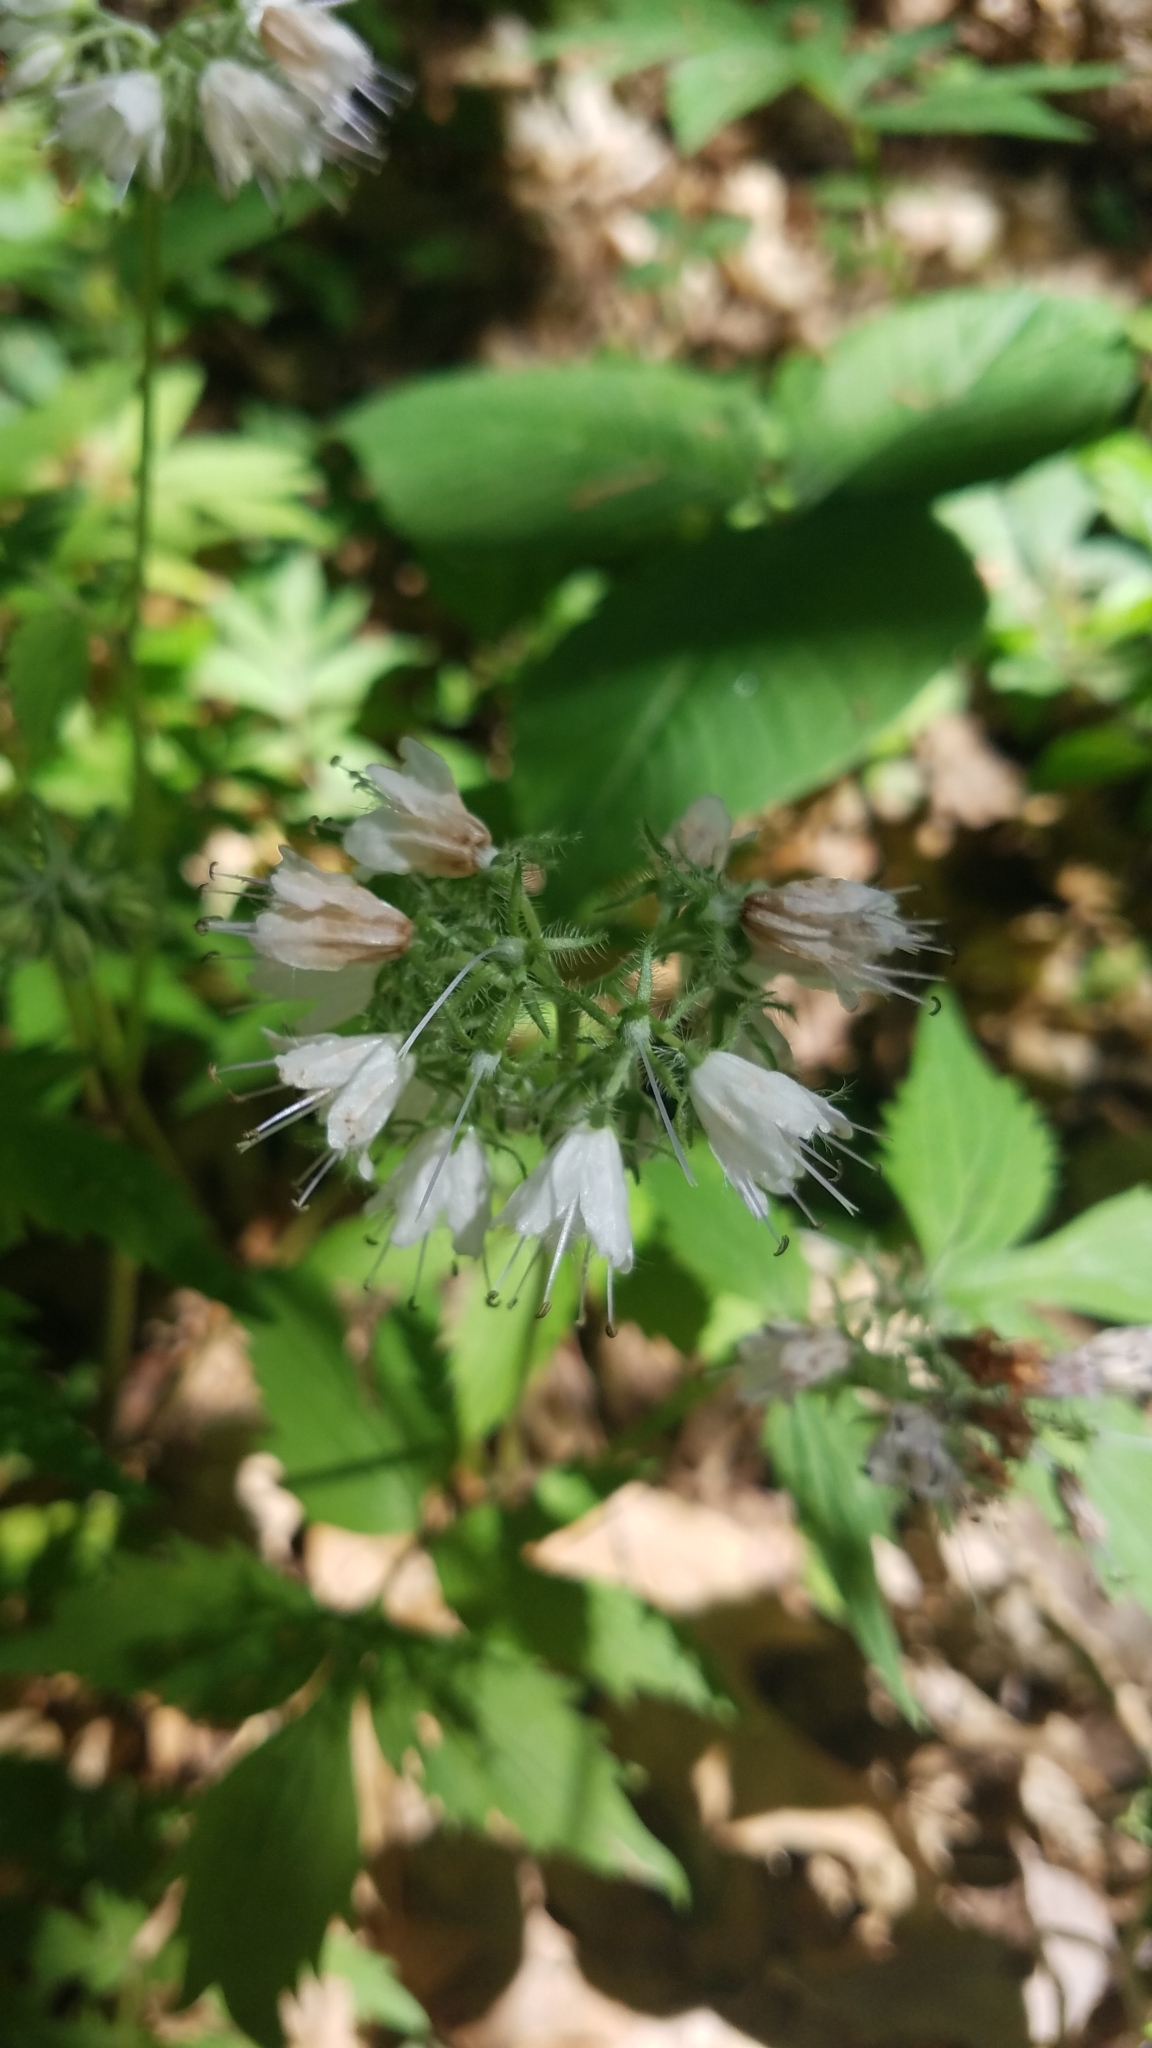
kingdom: Plantae
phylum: Tracheophyta
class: Magnoliopsida
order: Boraginales
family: Hydrophyllaceae
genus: Hydrophyllum
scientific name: Hydrophyllum virginianum
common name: Virginia waterleaf
